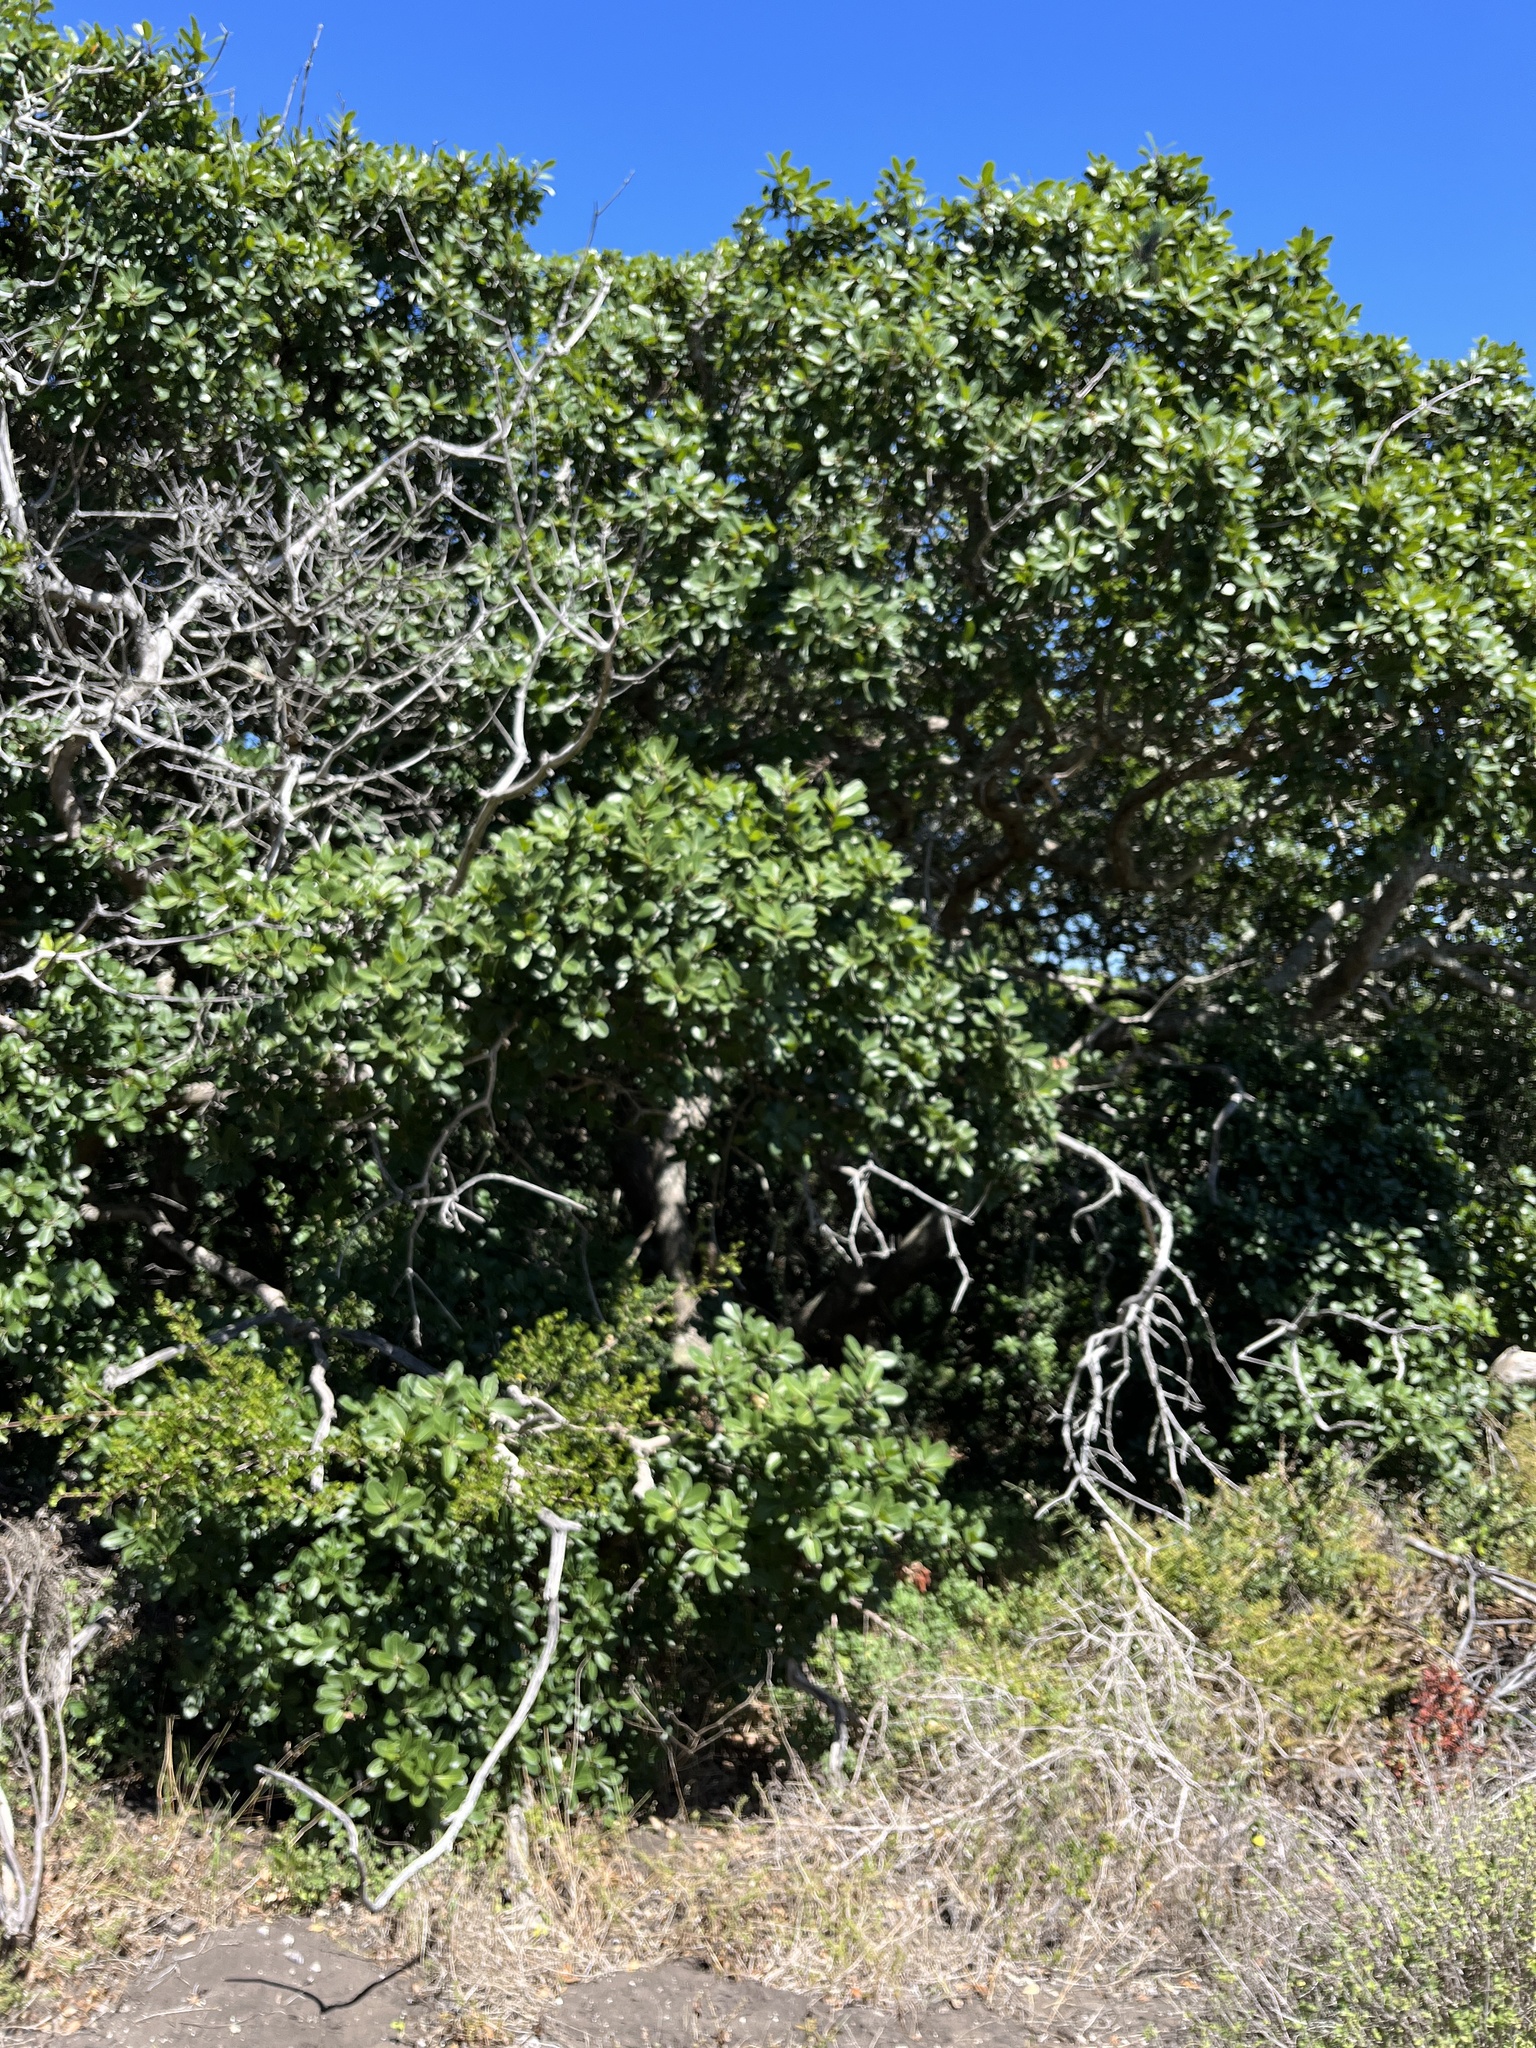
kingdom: Plantae
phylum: Tracheophyta
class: Magnoliopsida
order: Ericales
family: Sapotaceae
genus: Sideroxylon
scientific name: Sideroxylon inerme
